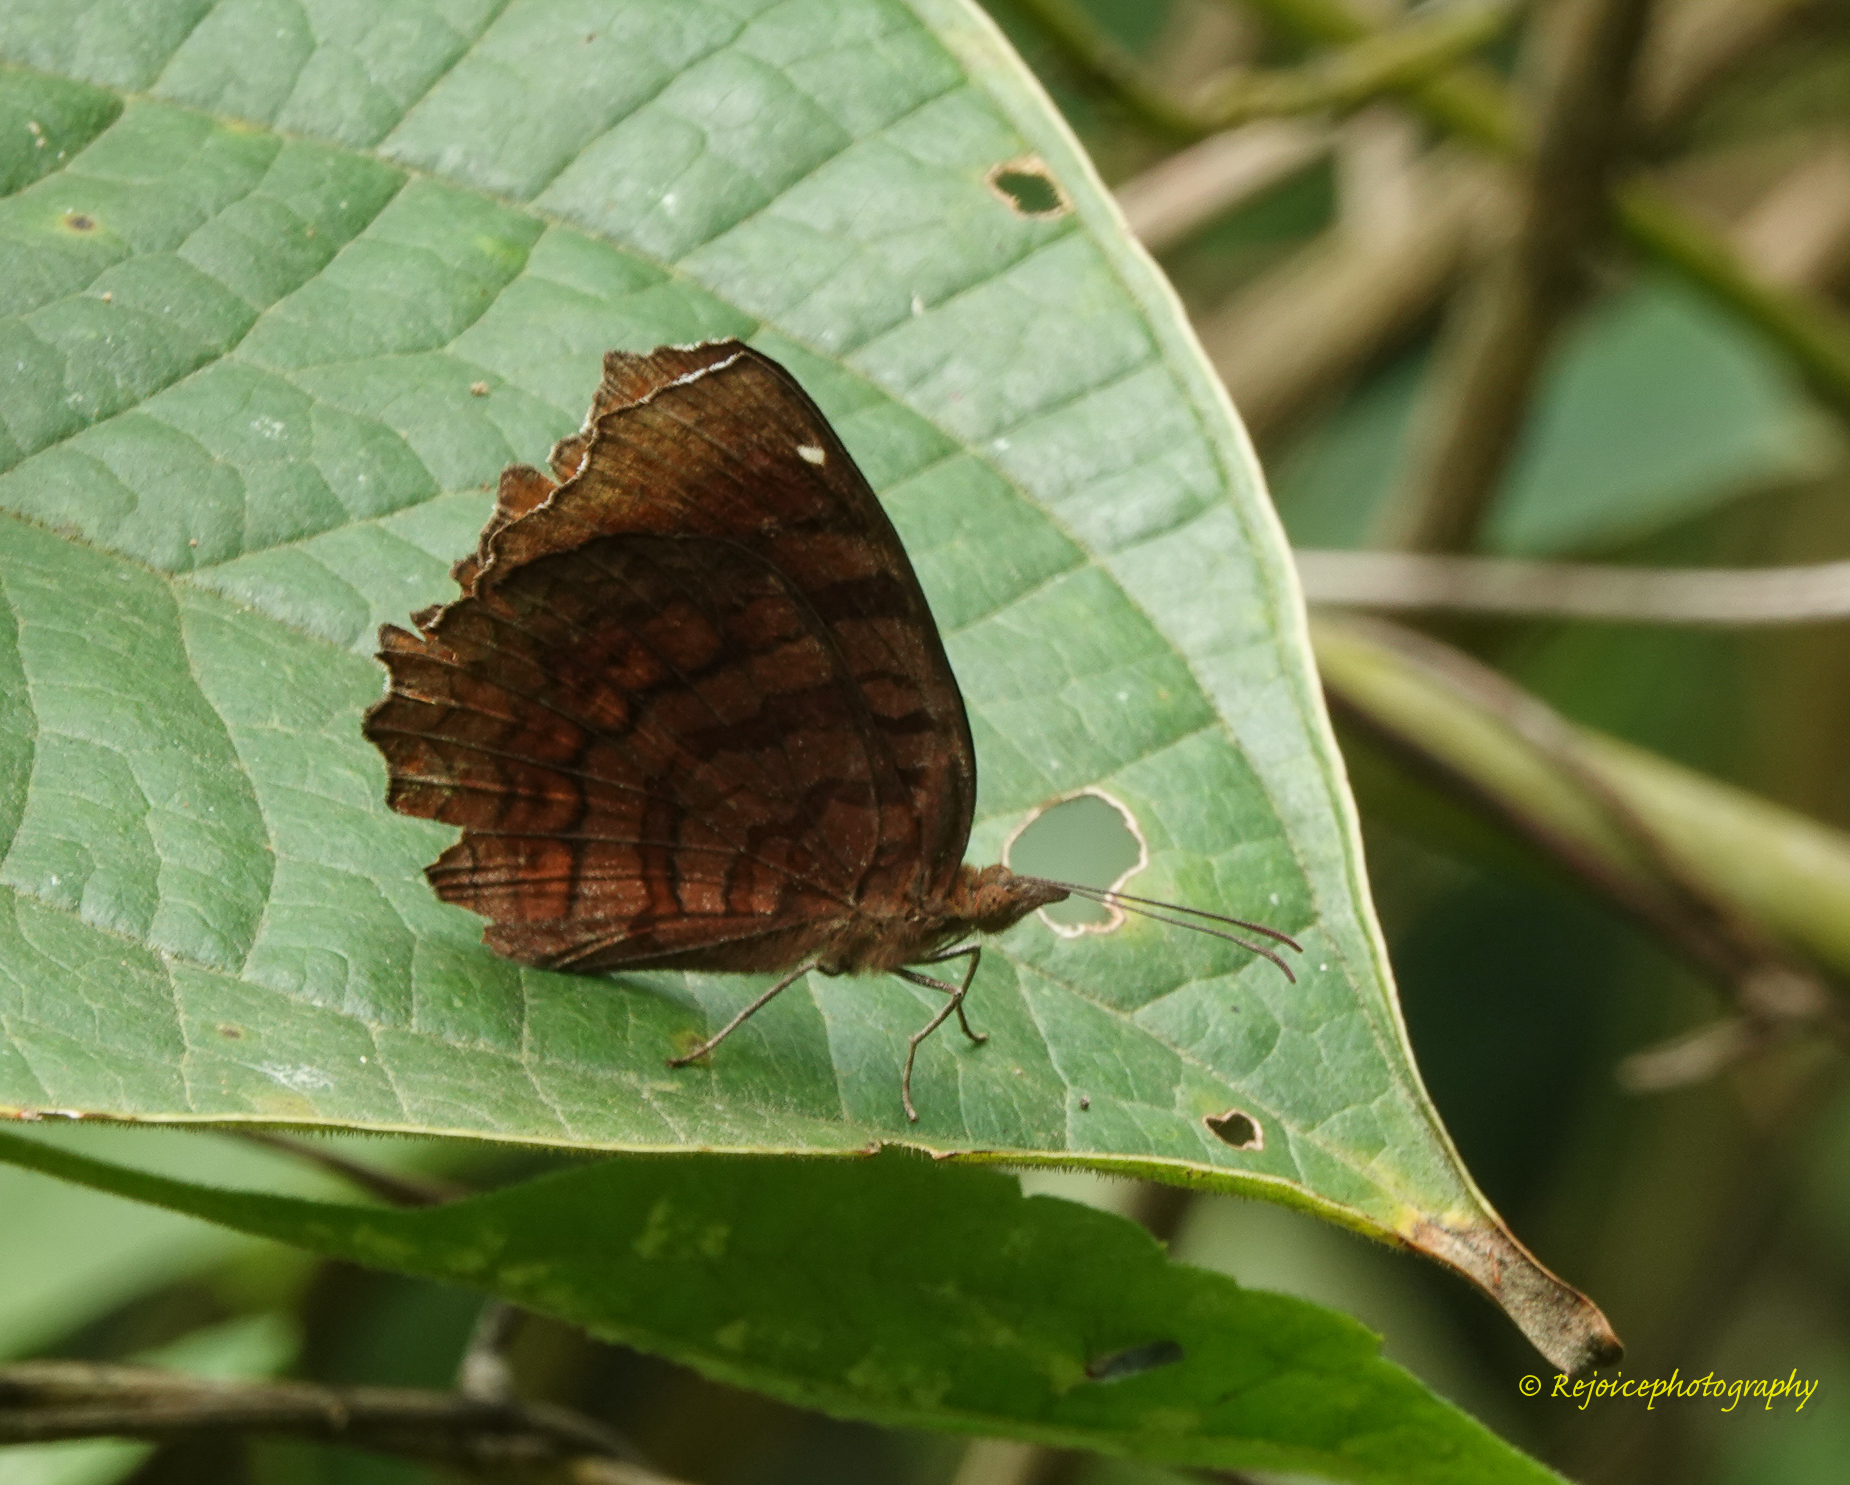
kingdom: Animalia
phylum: Arthropoda
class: Insecta
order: Lepidoptera
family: Nymphalidae
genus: Junonia
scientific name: Junonia iphita
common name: Chocolate pansy
